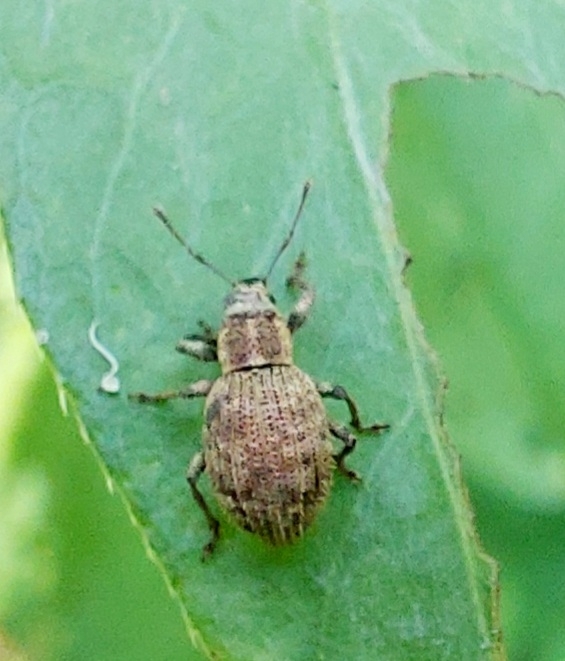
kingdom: Animalia
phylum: Arthropoda
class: Insecta
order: Coleoptera
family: Curculionidae
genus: Sciaphilus
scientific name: Sciaphilus asperatus
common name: Weevil
